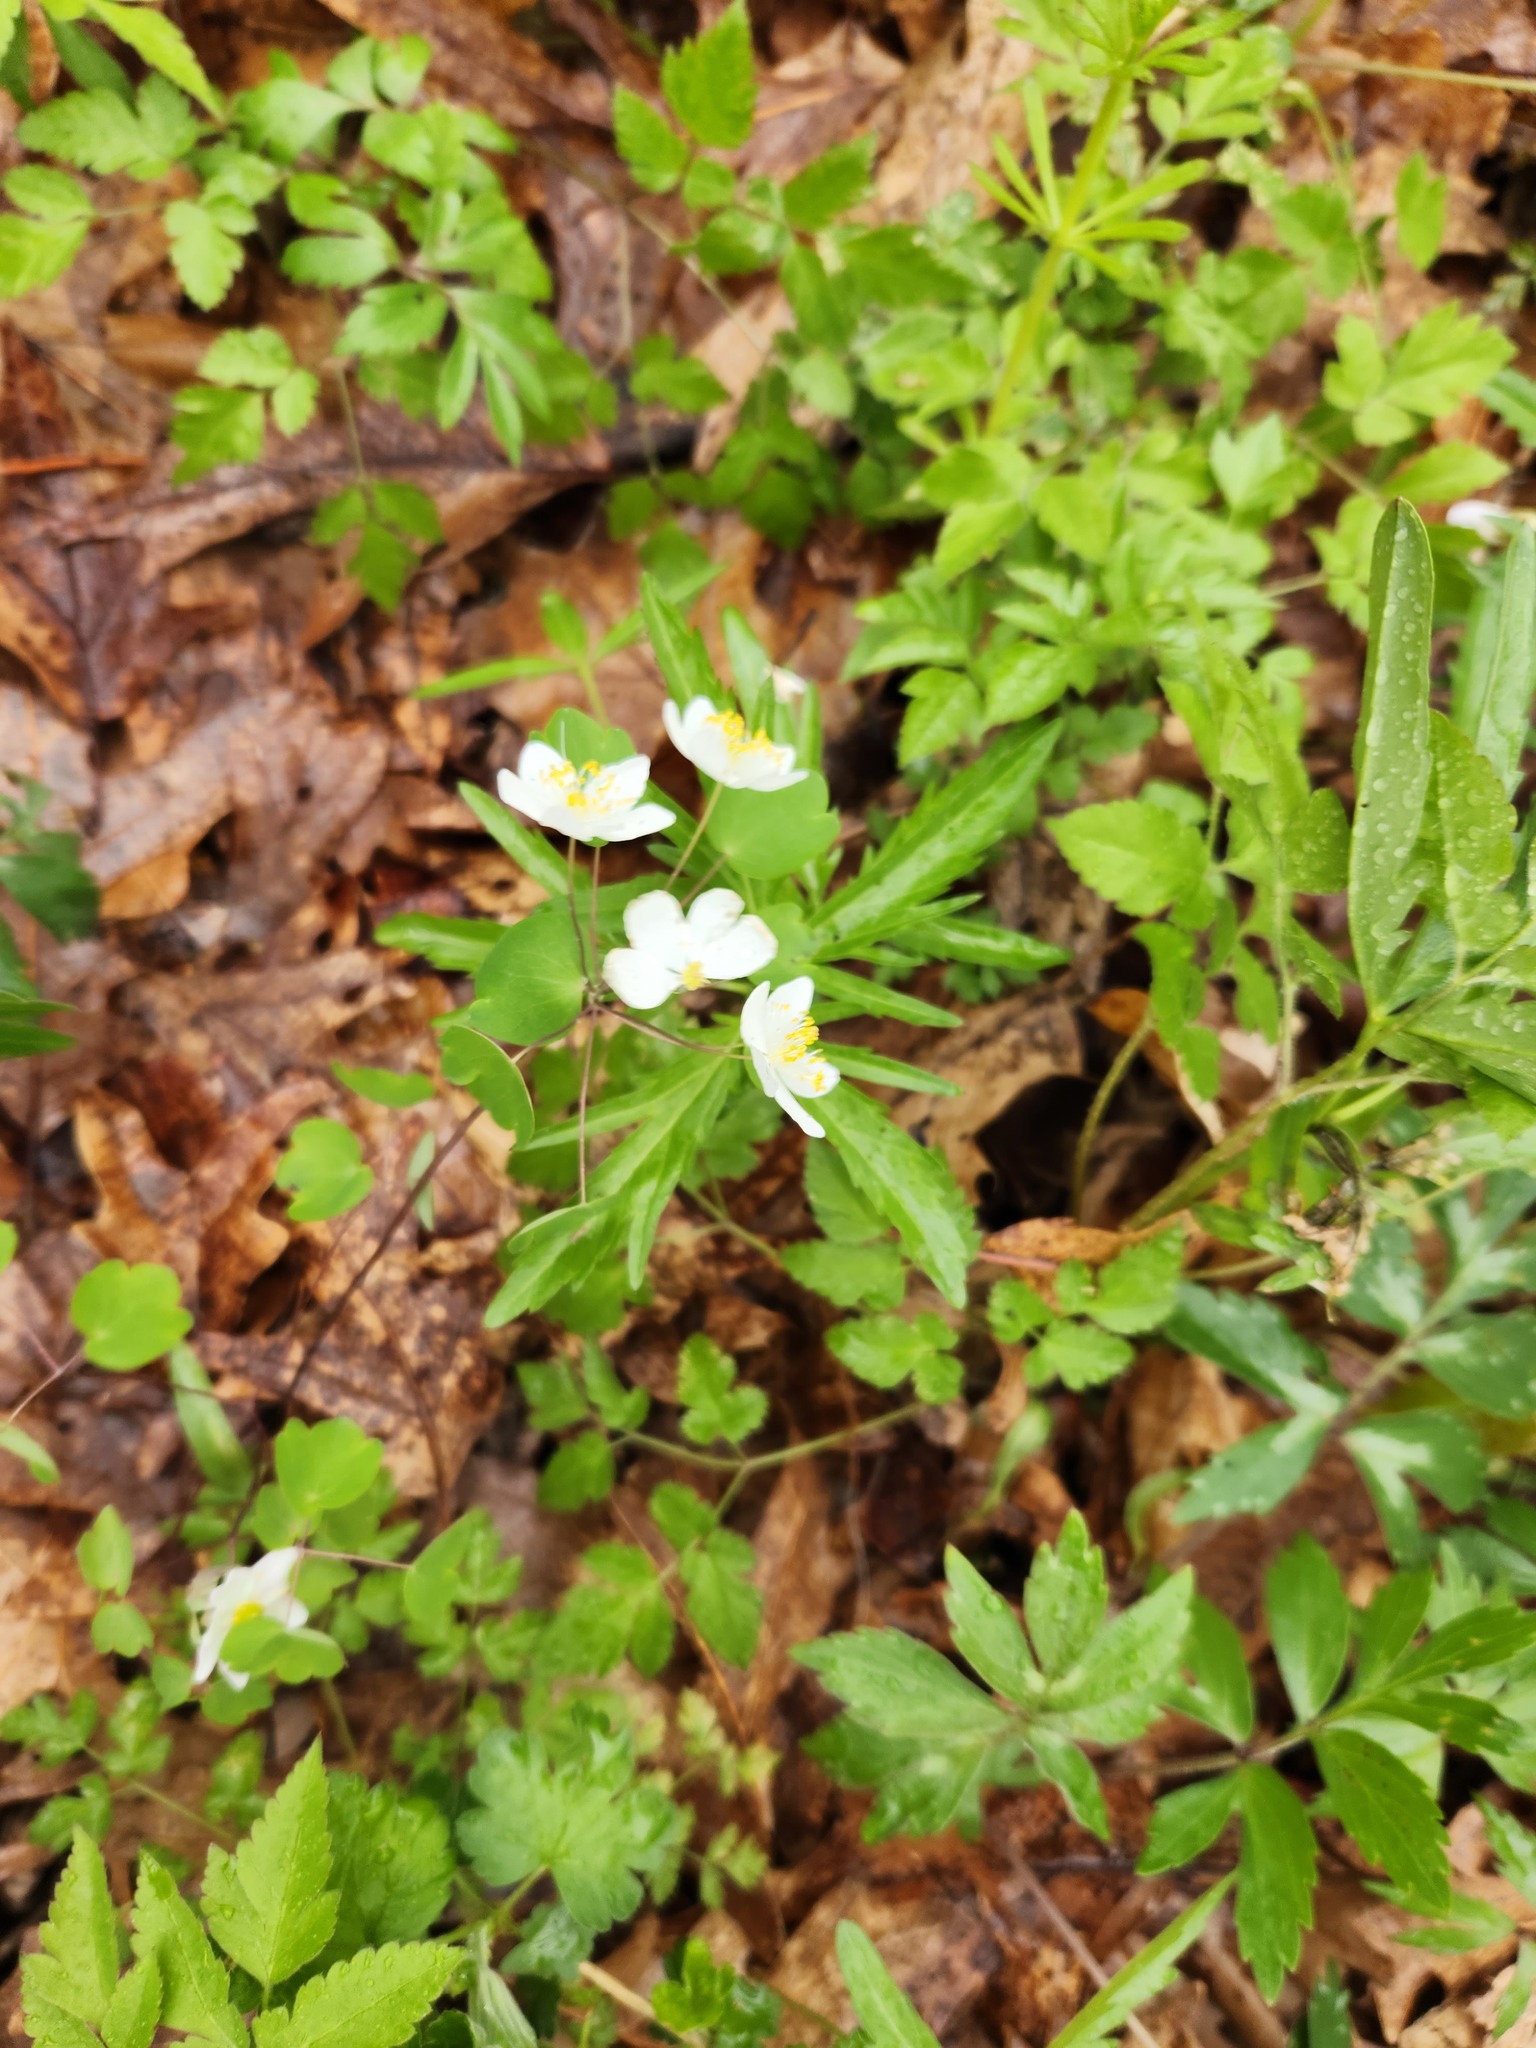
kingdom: Plantae
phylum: Tracheophyta
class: Magnoliopsida
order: Ranunculales
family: Ranunculaceae
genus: Thalictrum
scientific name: Thalictrum thalictroides
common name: Rue-anemone
